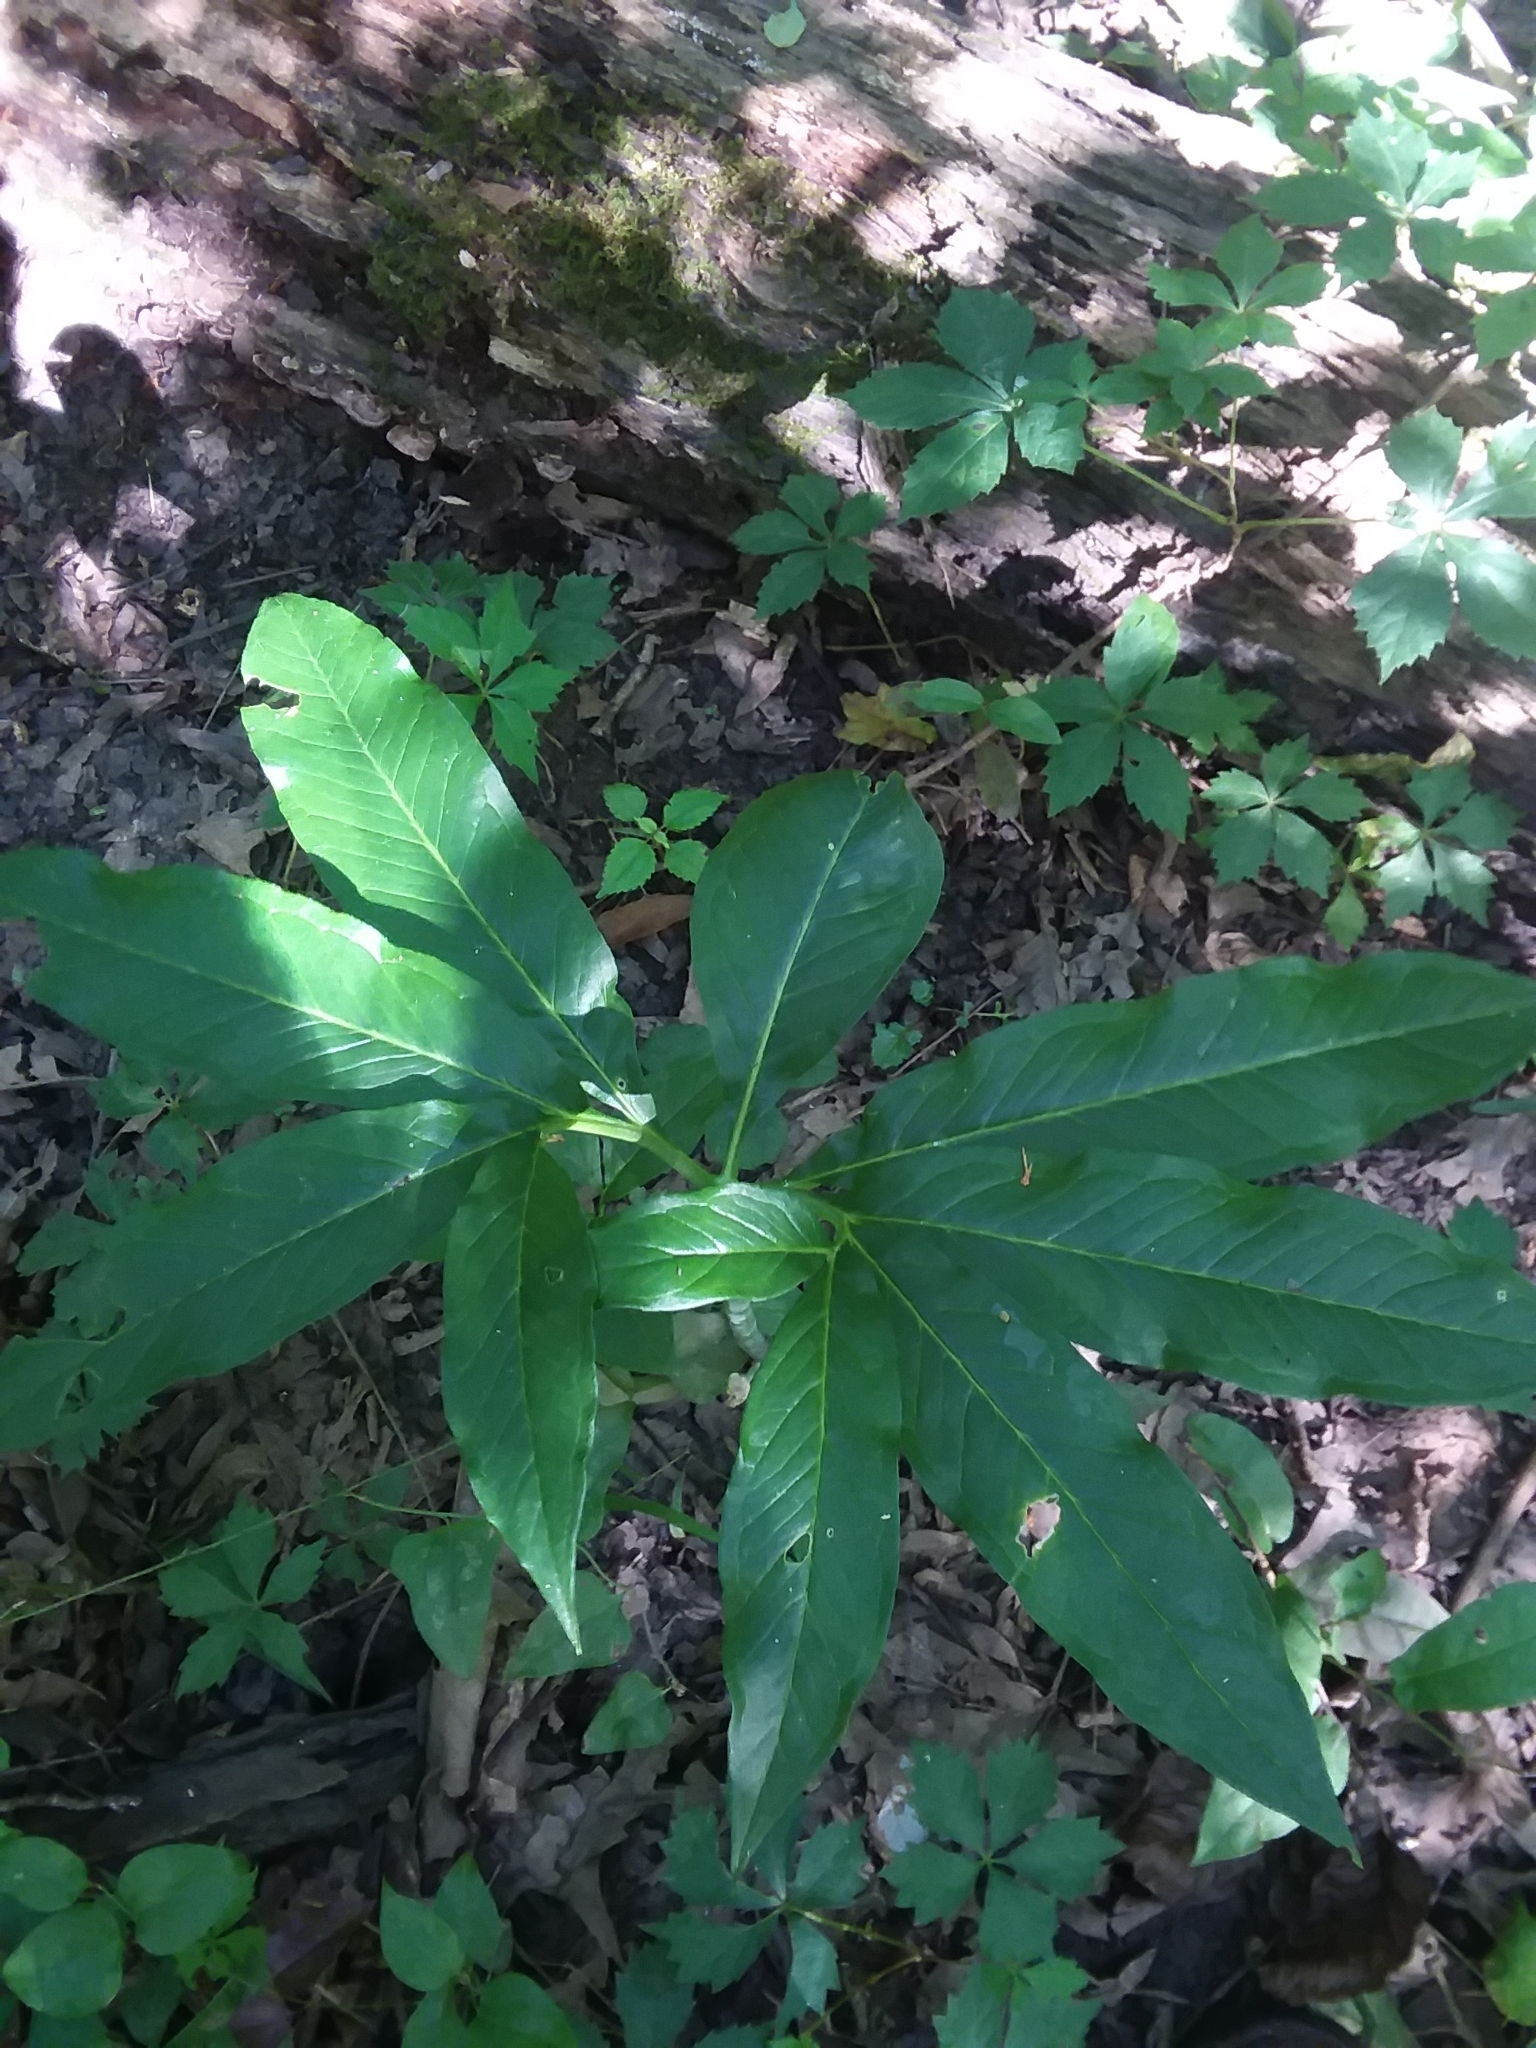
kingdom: Plantae
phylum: Tracheophyta
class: Liliopsida
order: Alismatales
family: Araceae
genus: Arisaema
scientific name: Arisaema dracontium
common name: Dragon-arum
